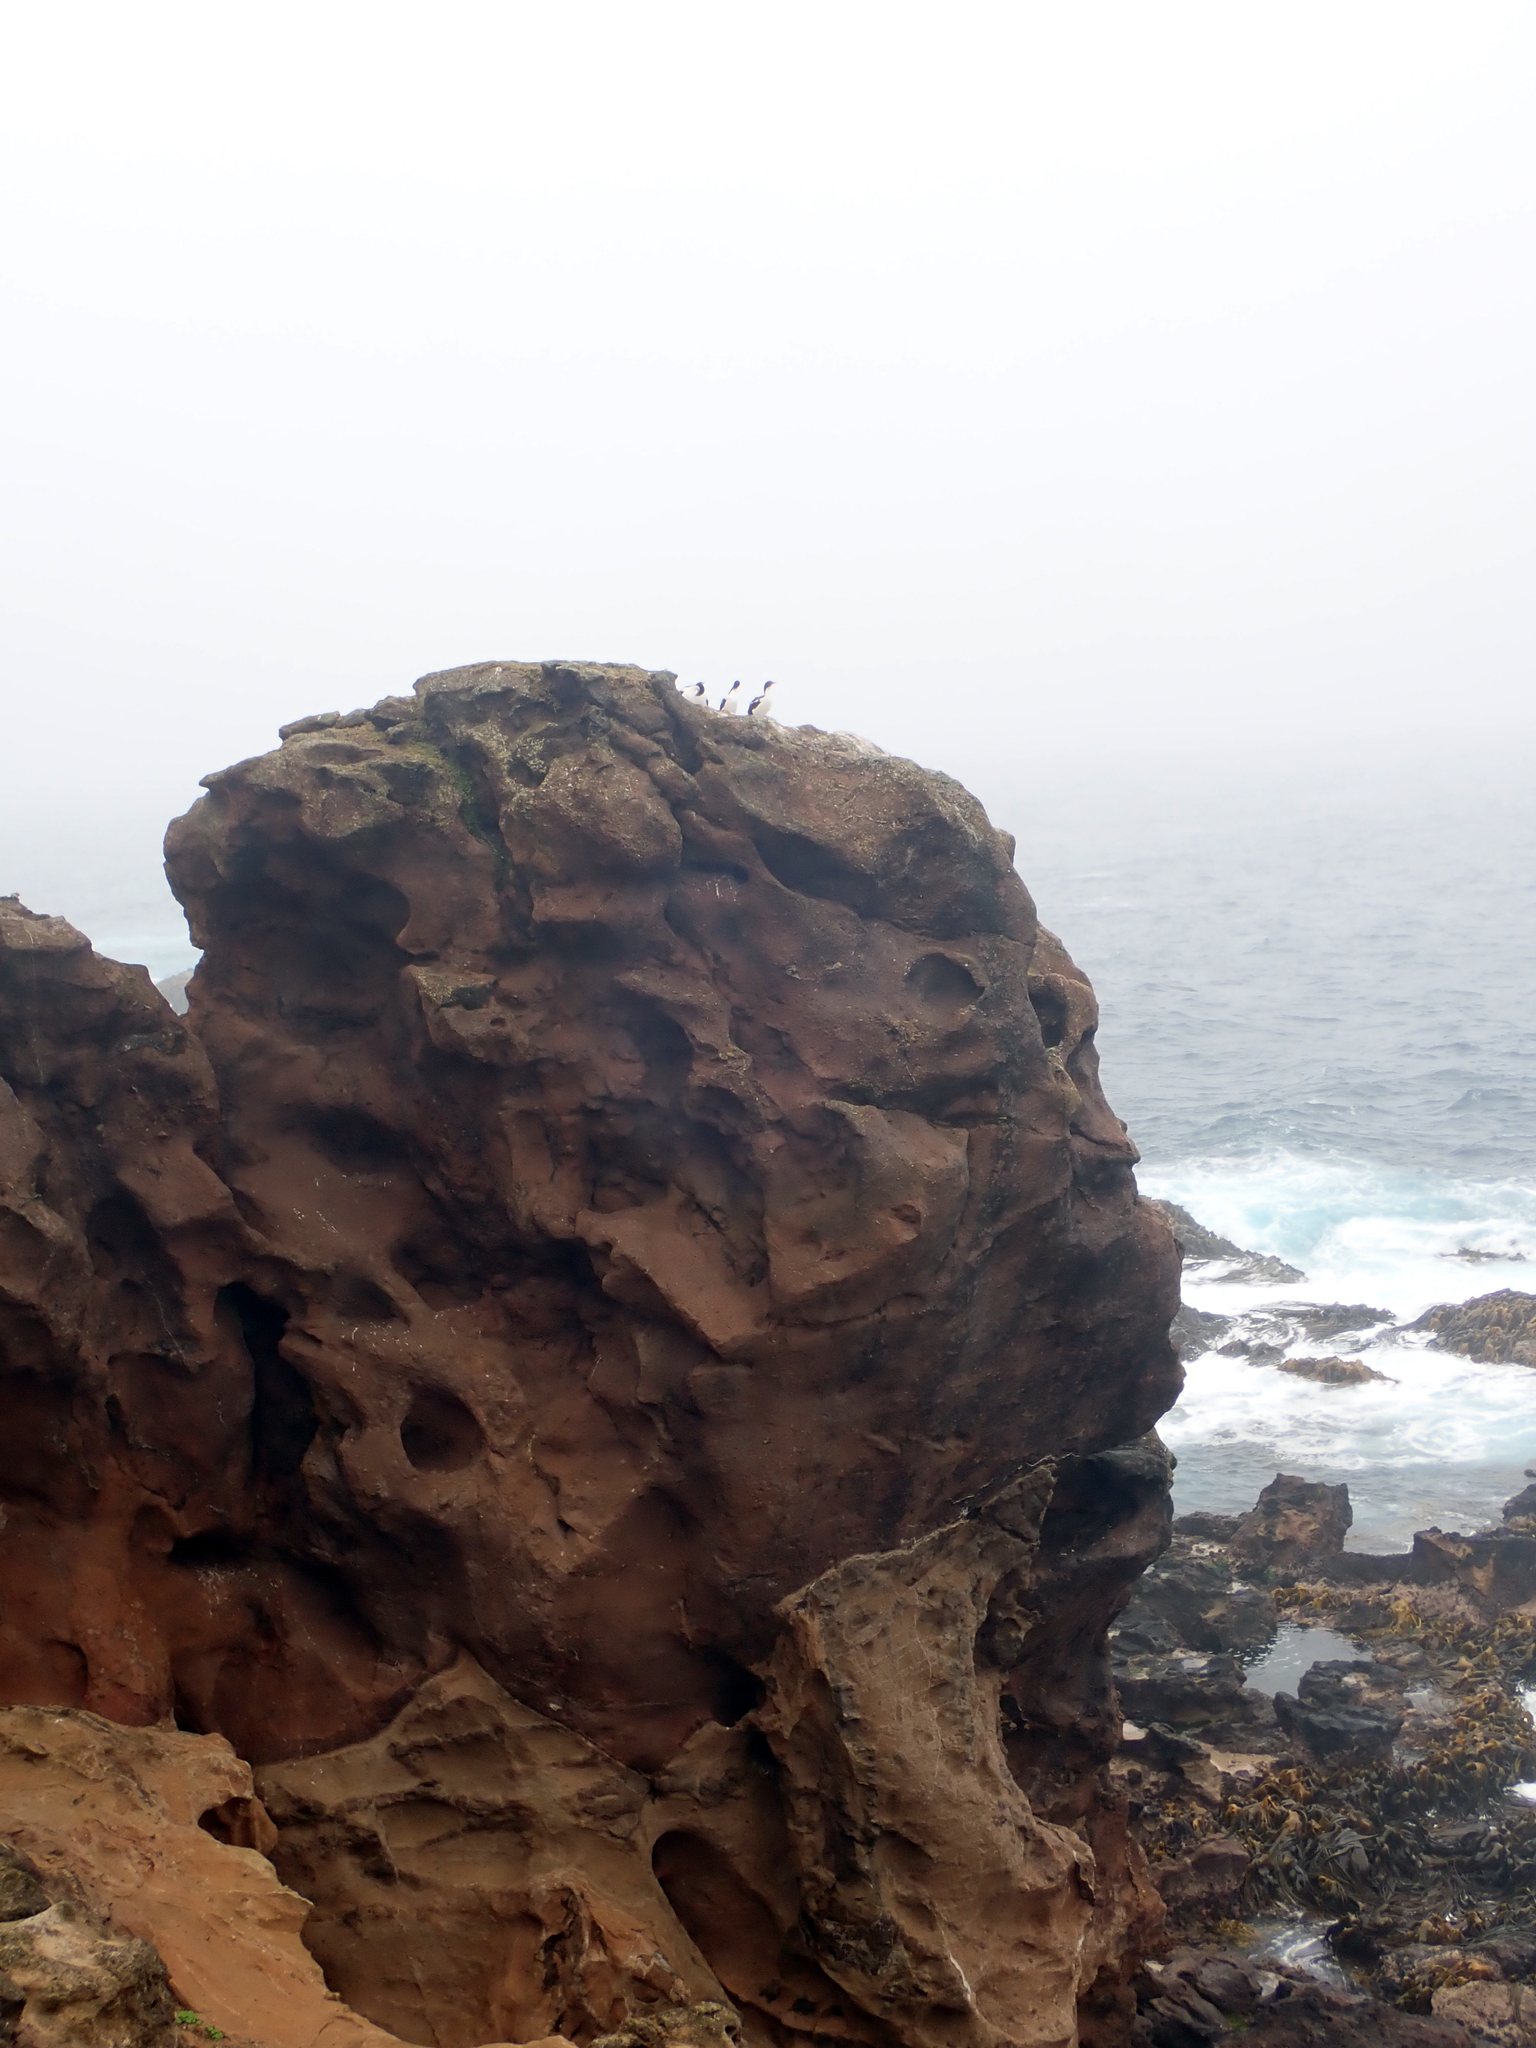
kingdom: Animalia
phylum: Chordata
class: Aves
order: Suliformes
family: Phalacrocoracidae
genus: Leucocarbo
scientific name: Leucocarbo onslowi
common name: Chatham shag
